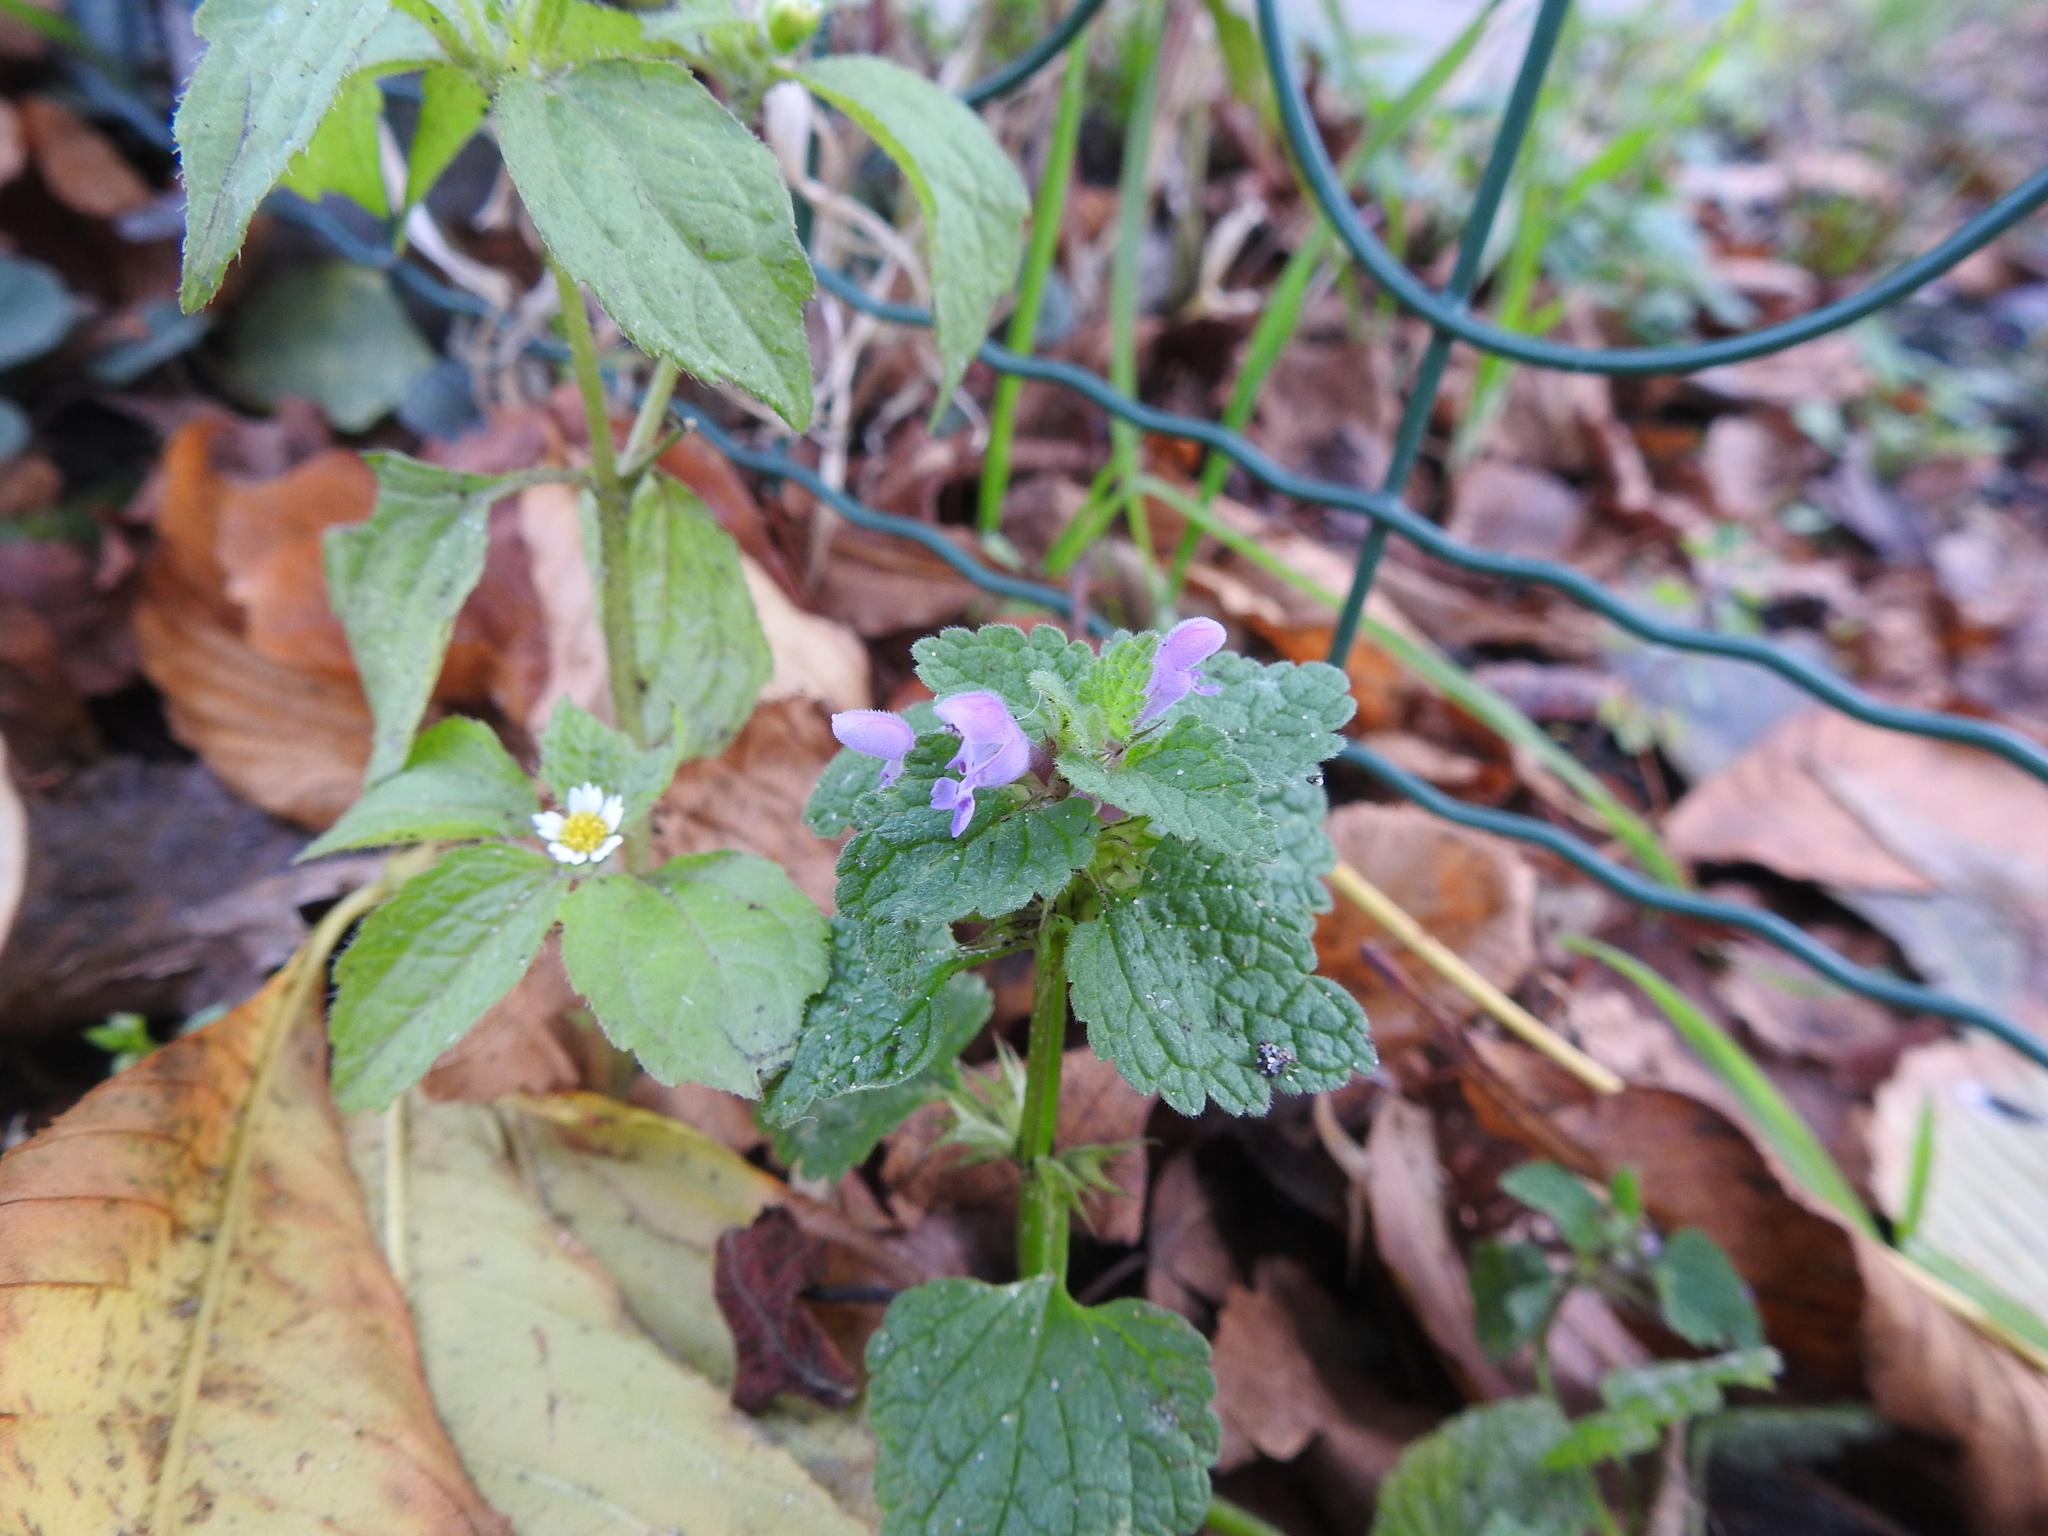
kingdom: Plantae
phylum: Tracheophyta
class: Magnoliopsida
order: Lamiales
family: Lamiaceae
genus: Lamium
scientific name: Lamium purpureum
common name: Red dead-nettle
